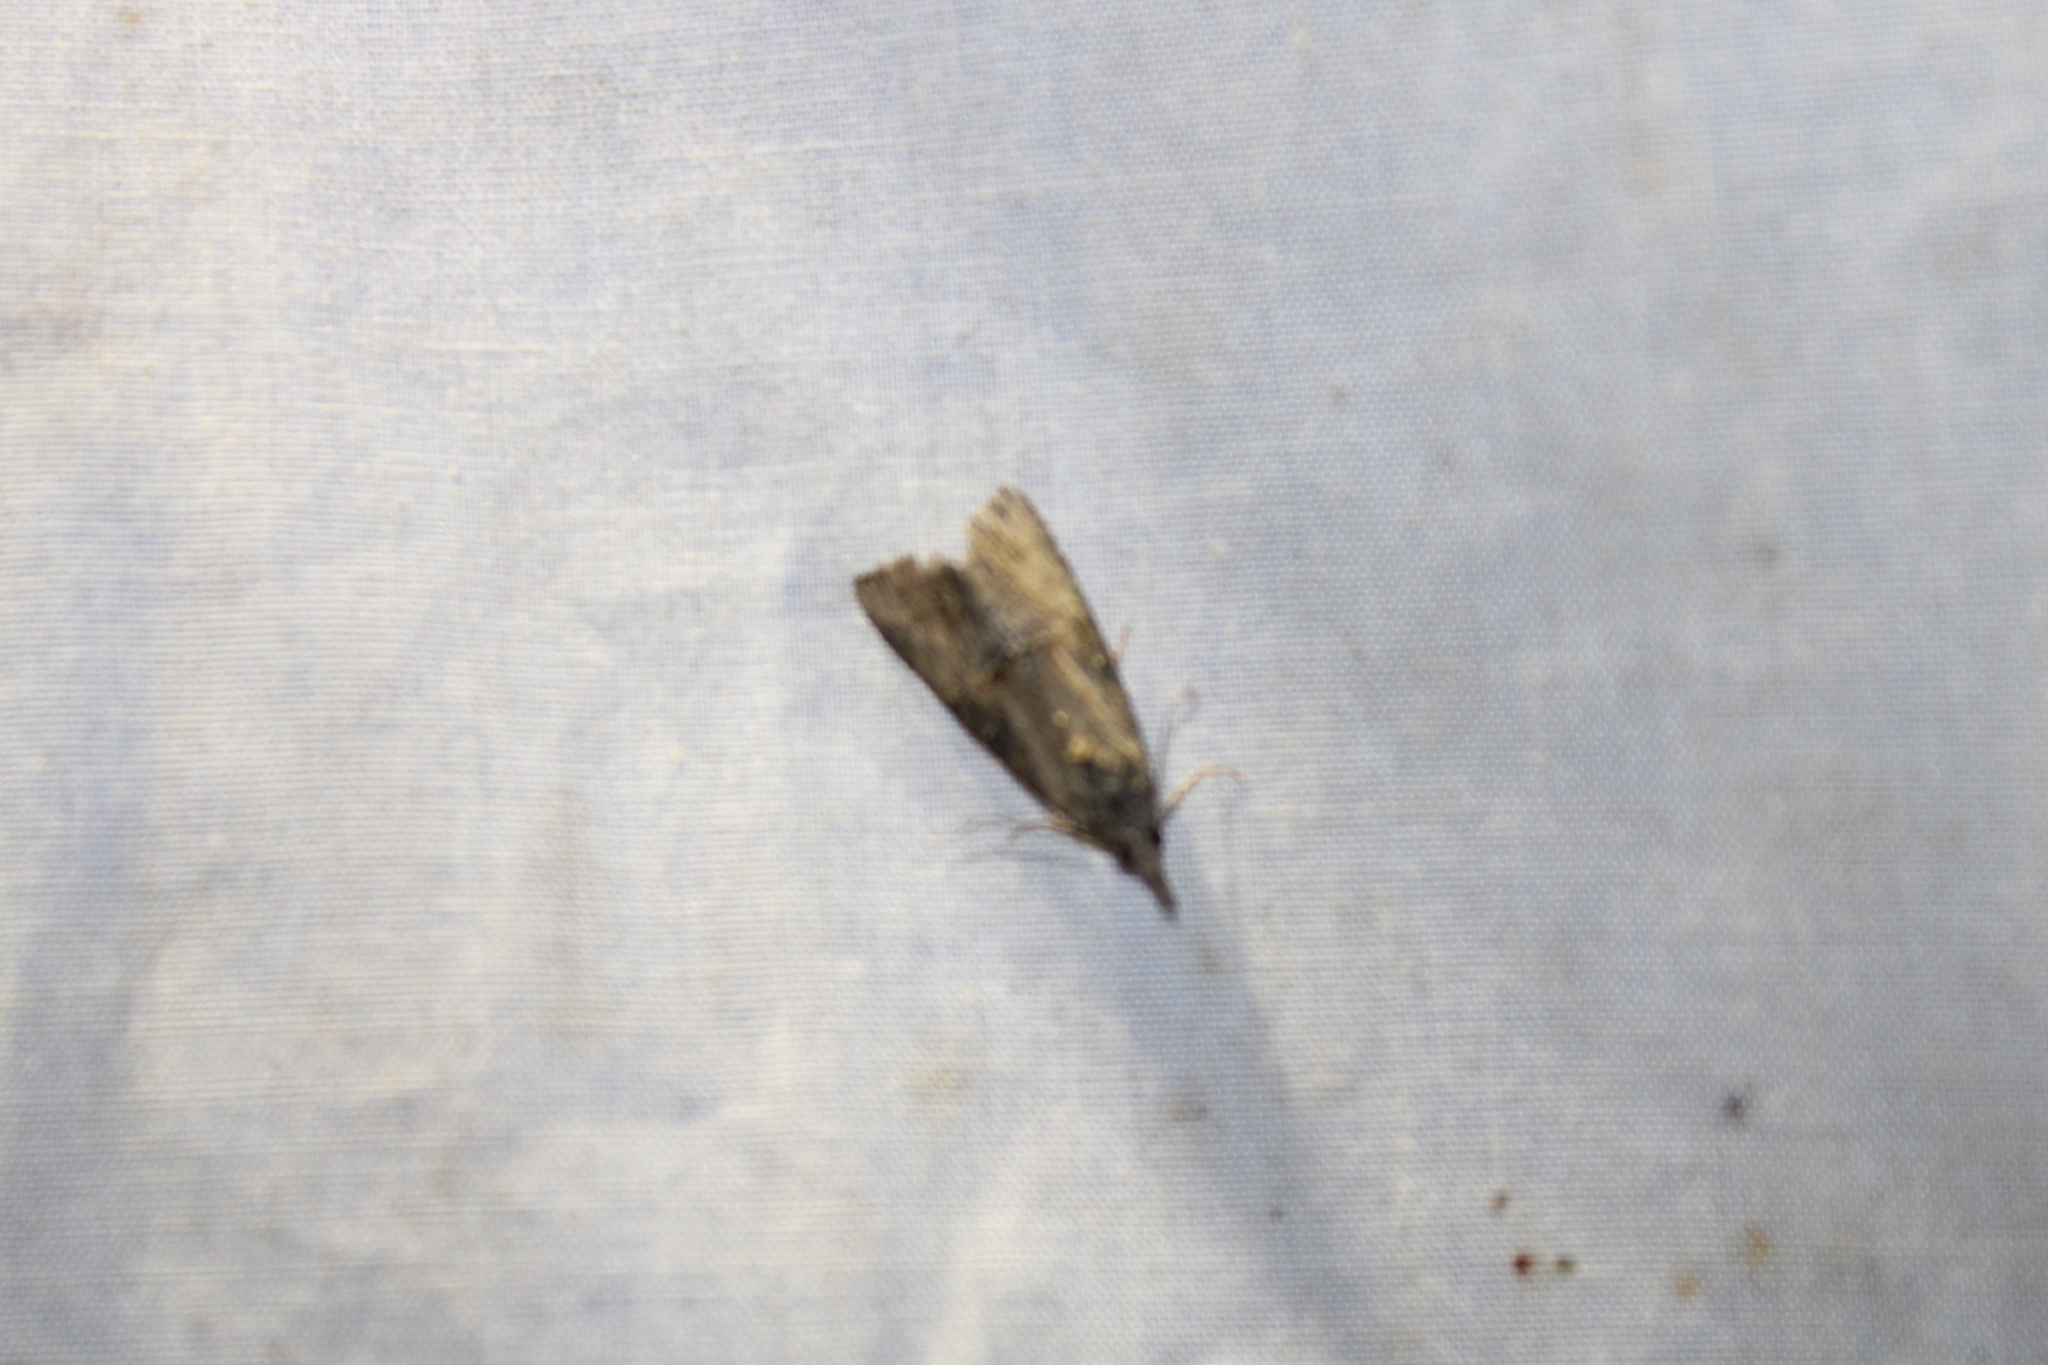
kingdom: Animalia
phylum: Arthropoda
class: Insecta
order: Lepidoptera
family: Erebidae
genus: Hypena
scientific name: Hypena scabra
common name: Green cloverworm
